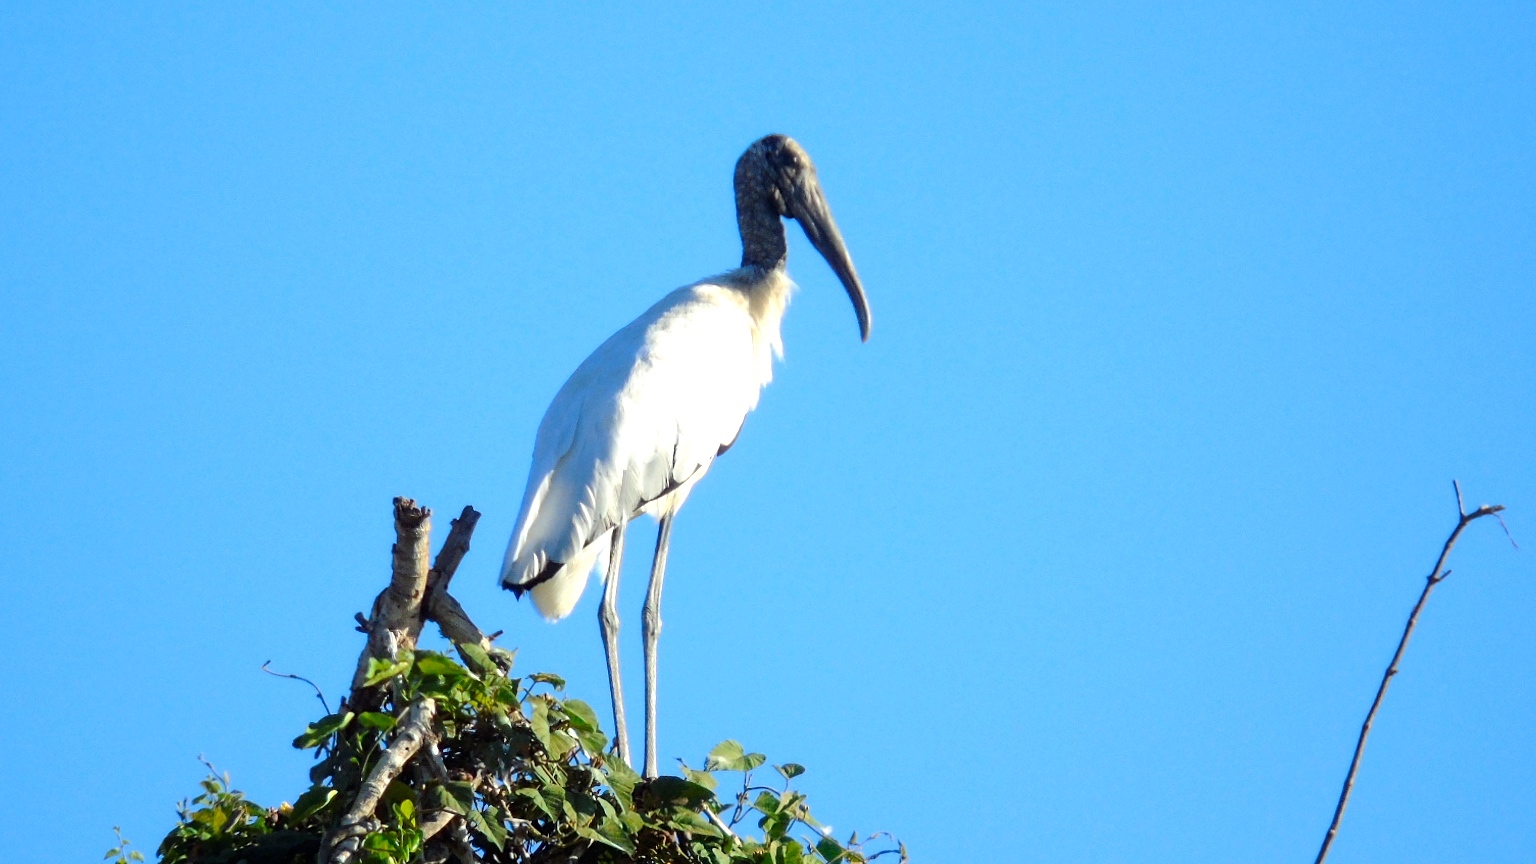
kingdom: Animalia
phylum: Chordata
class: Aves
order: Ciconiiformes
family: Ciconiidae
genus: Mycteria
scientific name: Mycteria americana
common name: Wood stork
